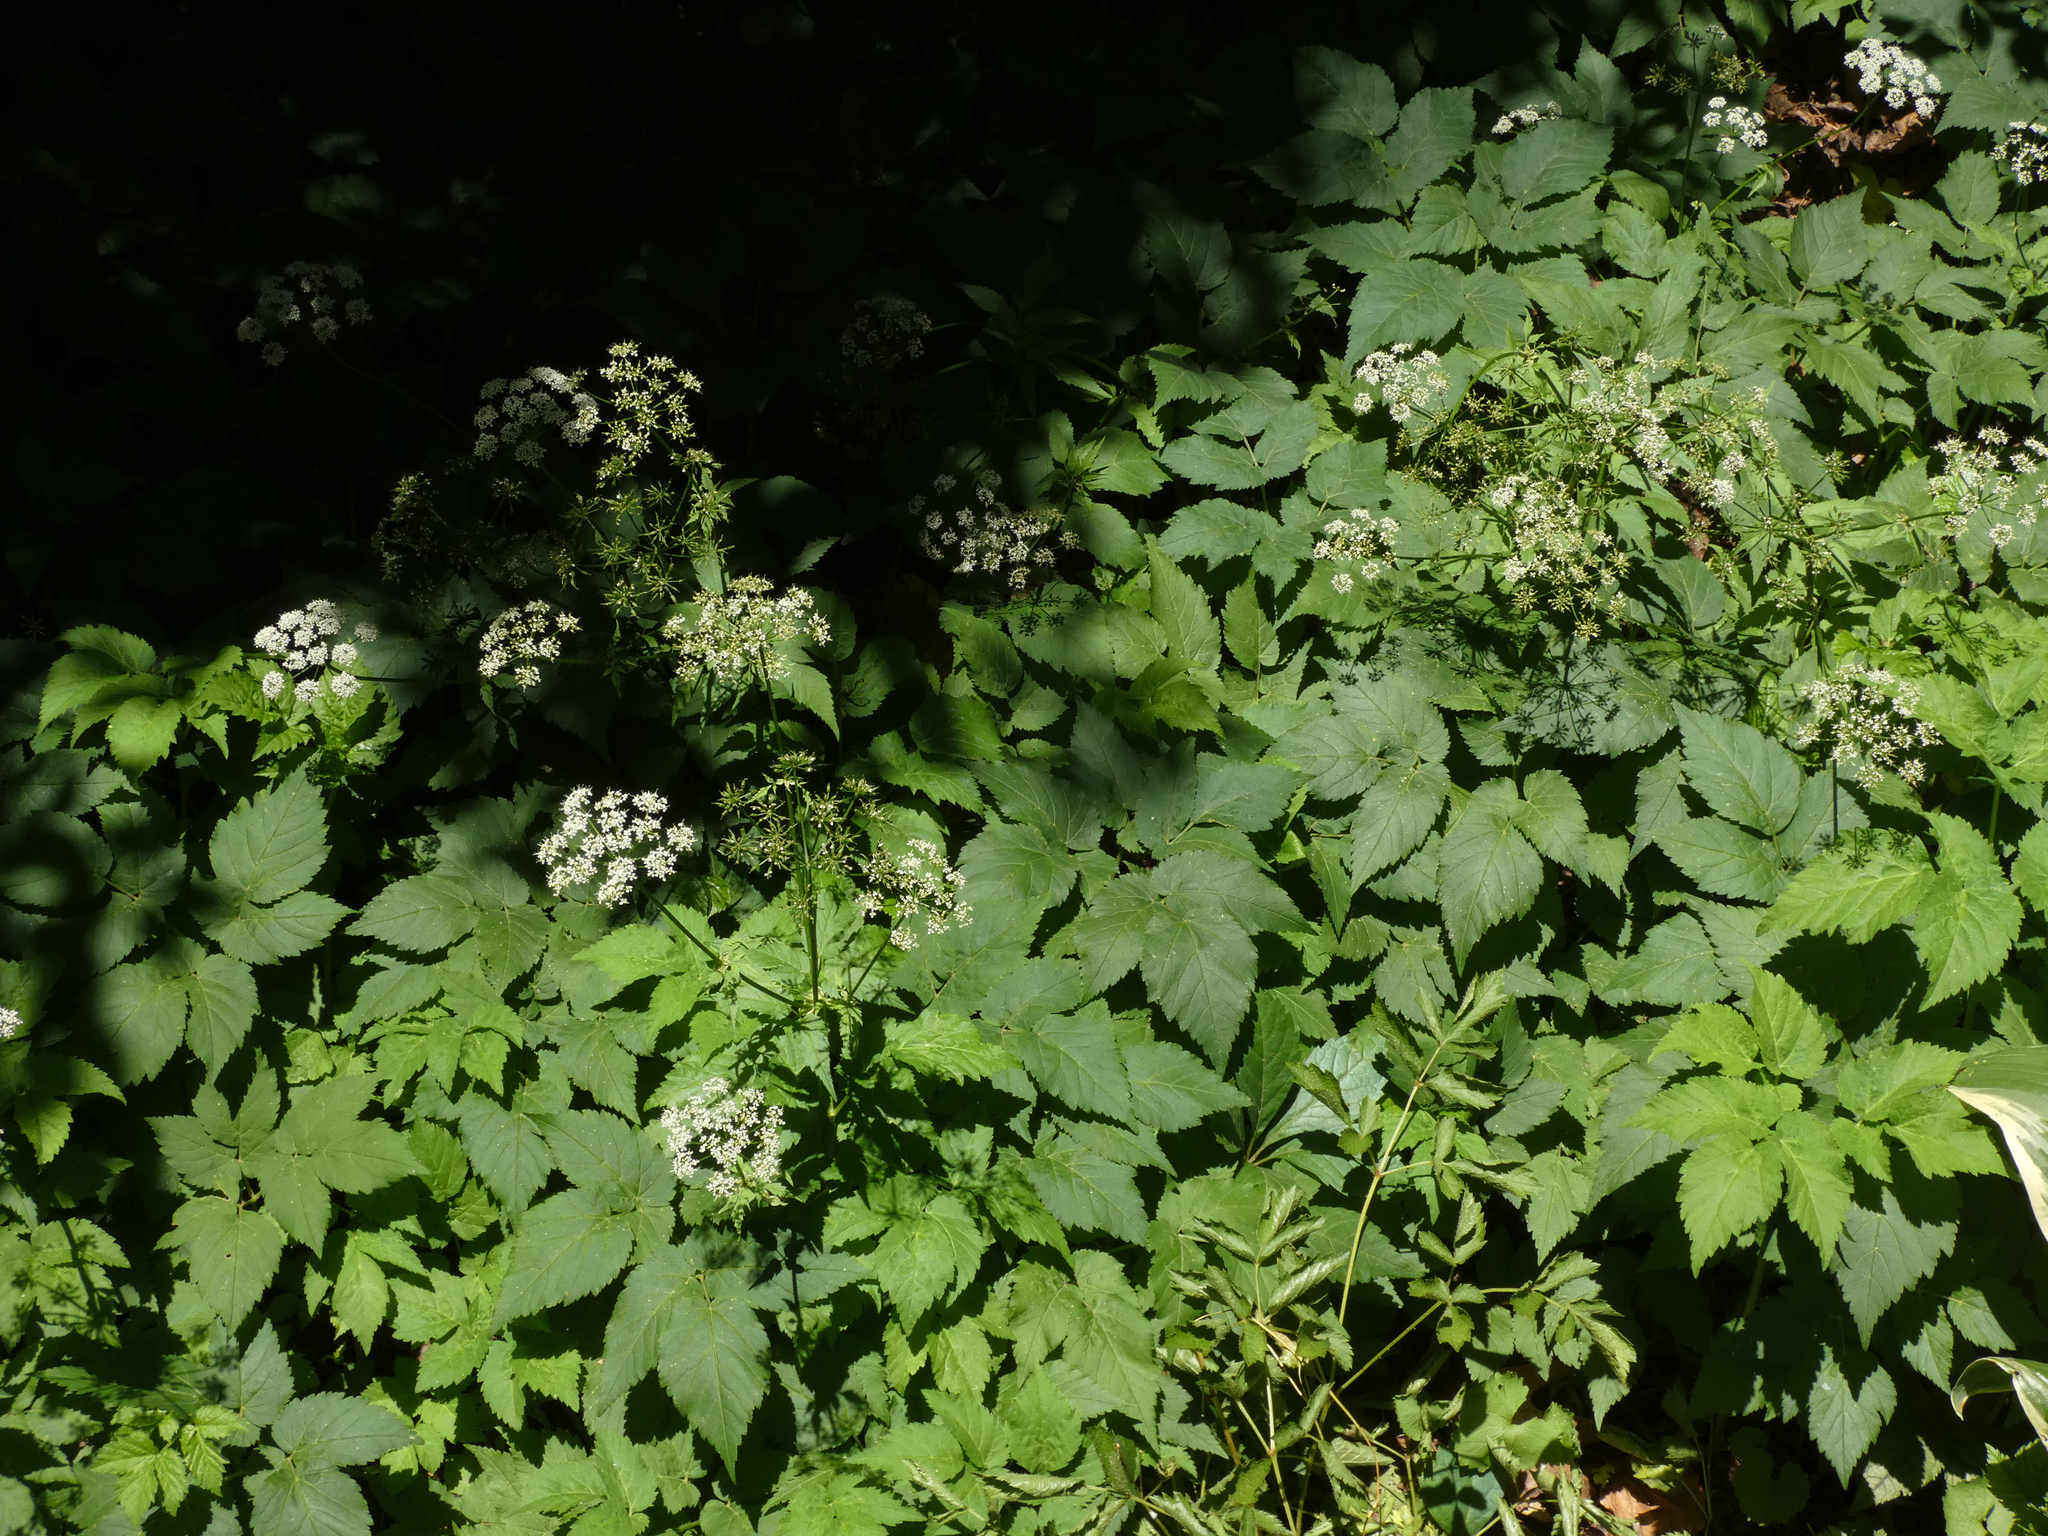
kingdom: Plantae
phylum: Tracheophyta
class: Magnoliopsida
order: Apiales
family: Apiaceae
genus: Aegopodium
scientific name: Aegopodium podagraria
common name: Ground-elder
